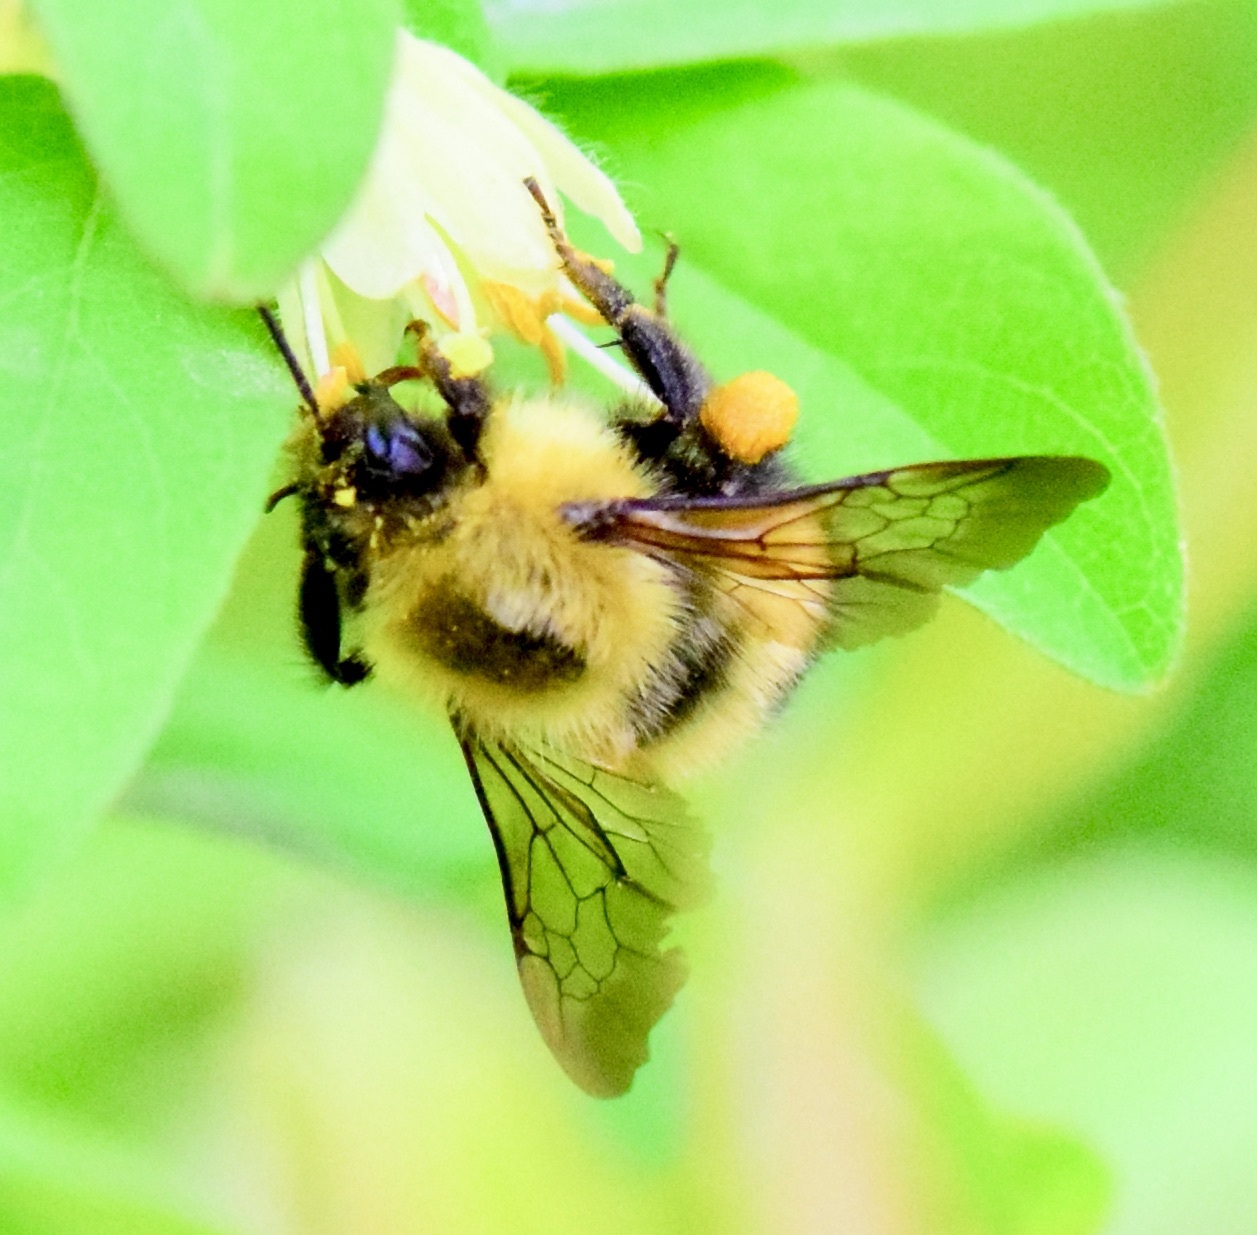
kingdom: Animalia
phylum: Arthropoda
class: Insecta
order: Hymenoptera
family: Apidae
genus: Bombus
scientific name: Bombus perplexus
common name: Confusing bumble bee
